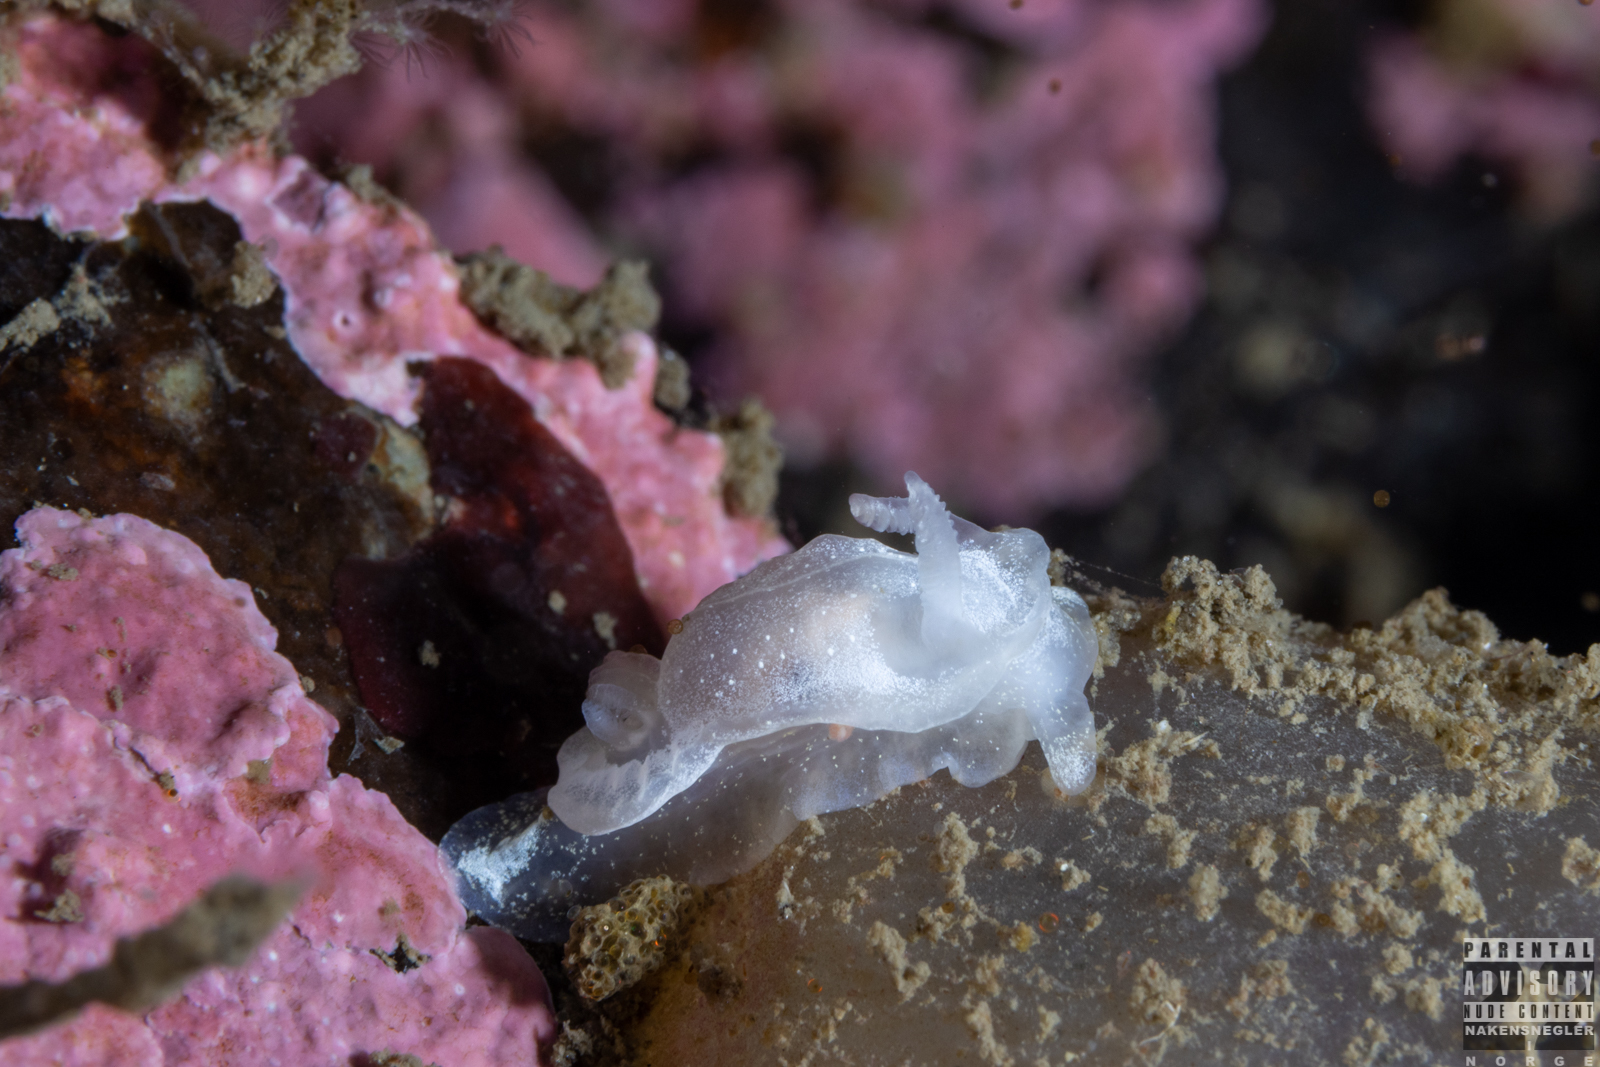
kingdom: Animalia
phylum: Mollusca
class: Gastropoda
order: Nudibranchia
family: Goniodorididae
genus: Okenia
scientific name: Okenia
